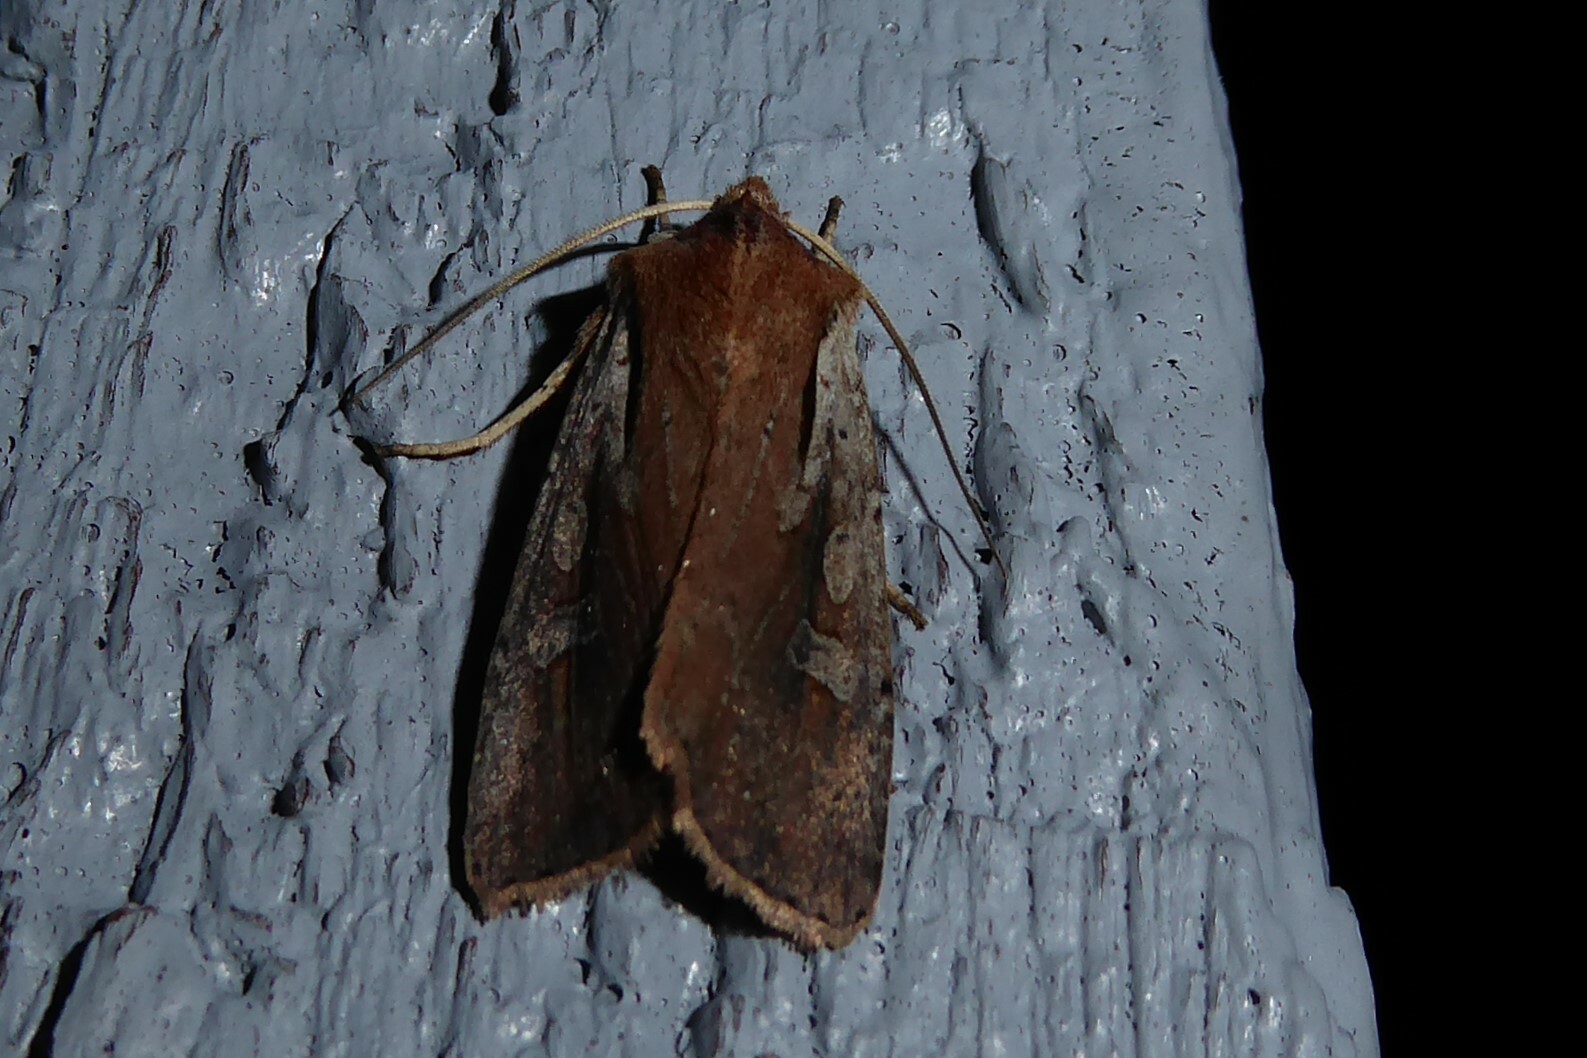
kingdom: Animalia
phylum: Arthropoda
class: Insecta
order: Lepidoptera
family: Noctuidae
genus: Ichneutica
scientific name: Ichneutica atristriga
